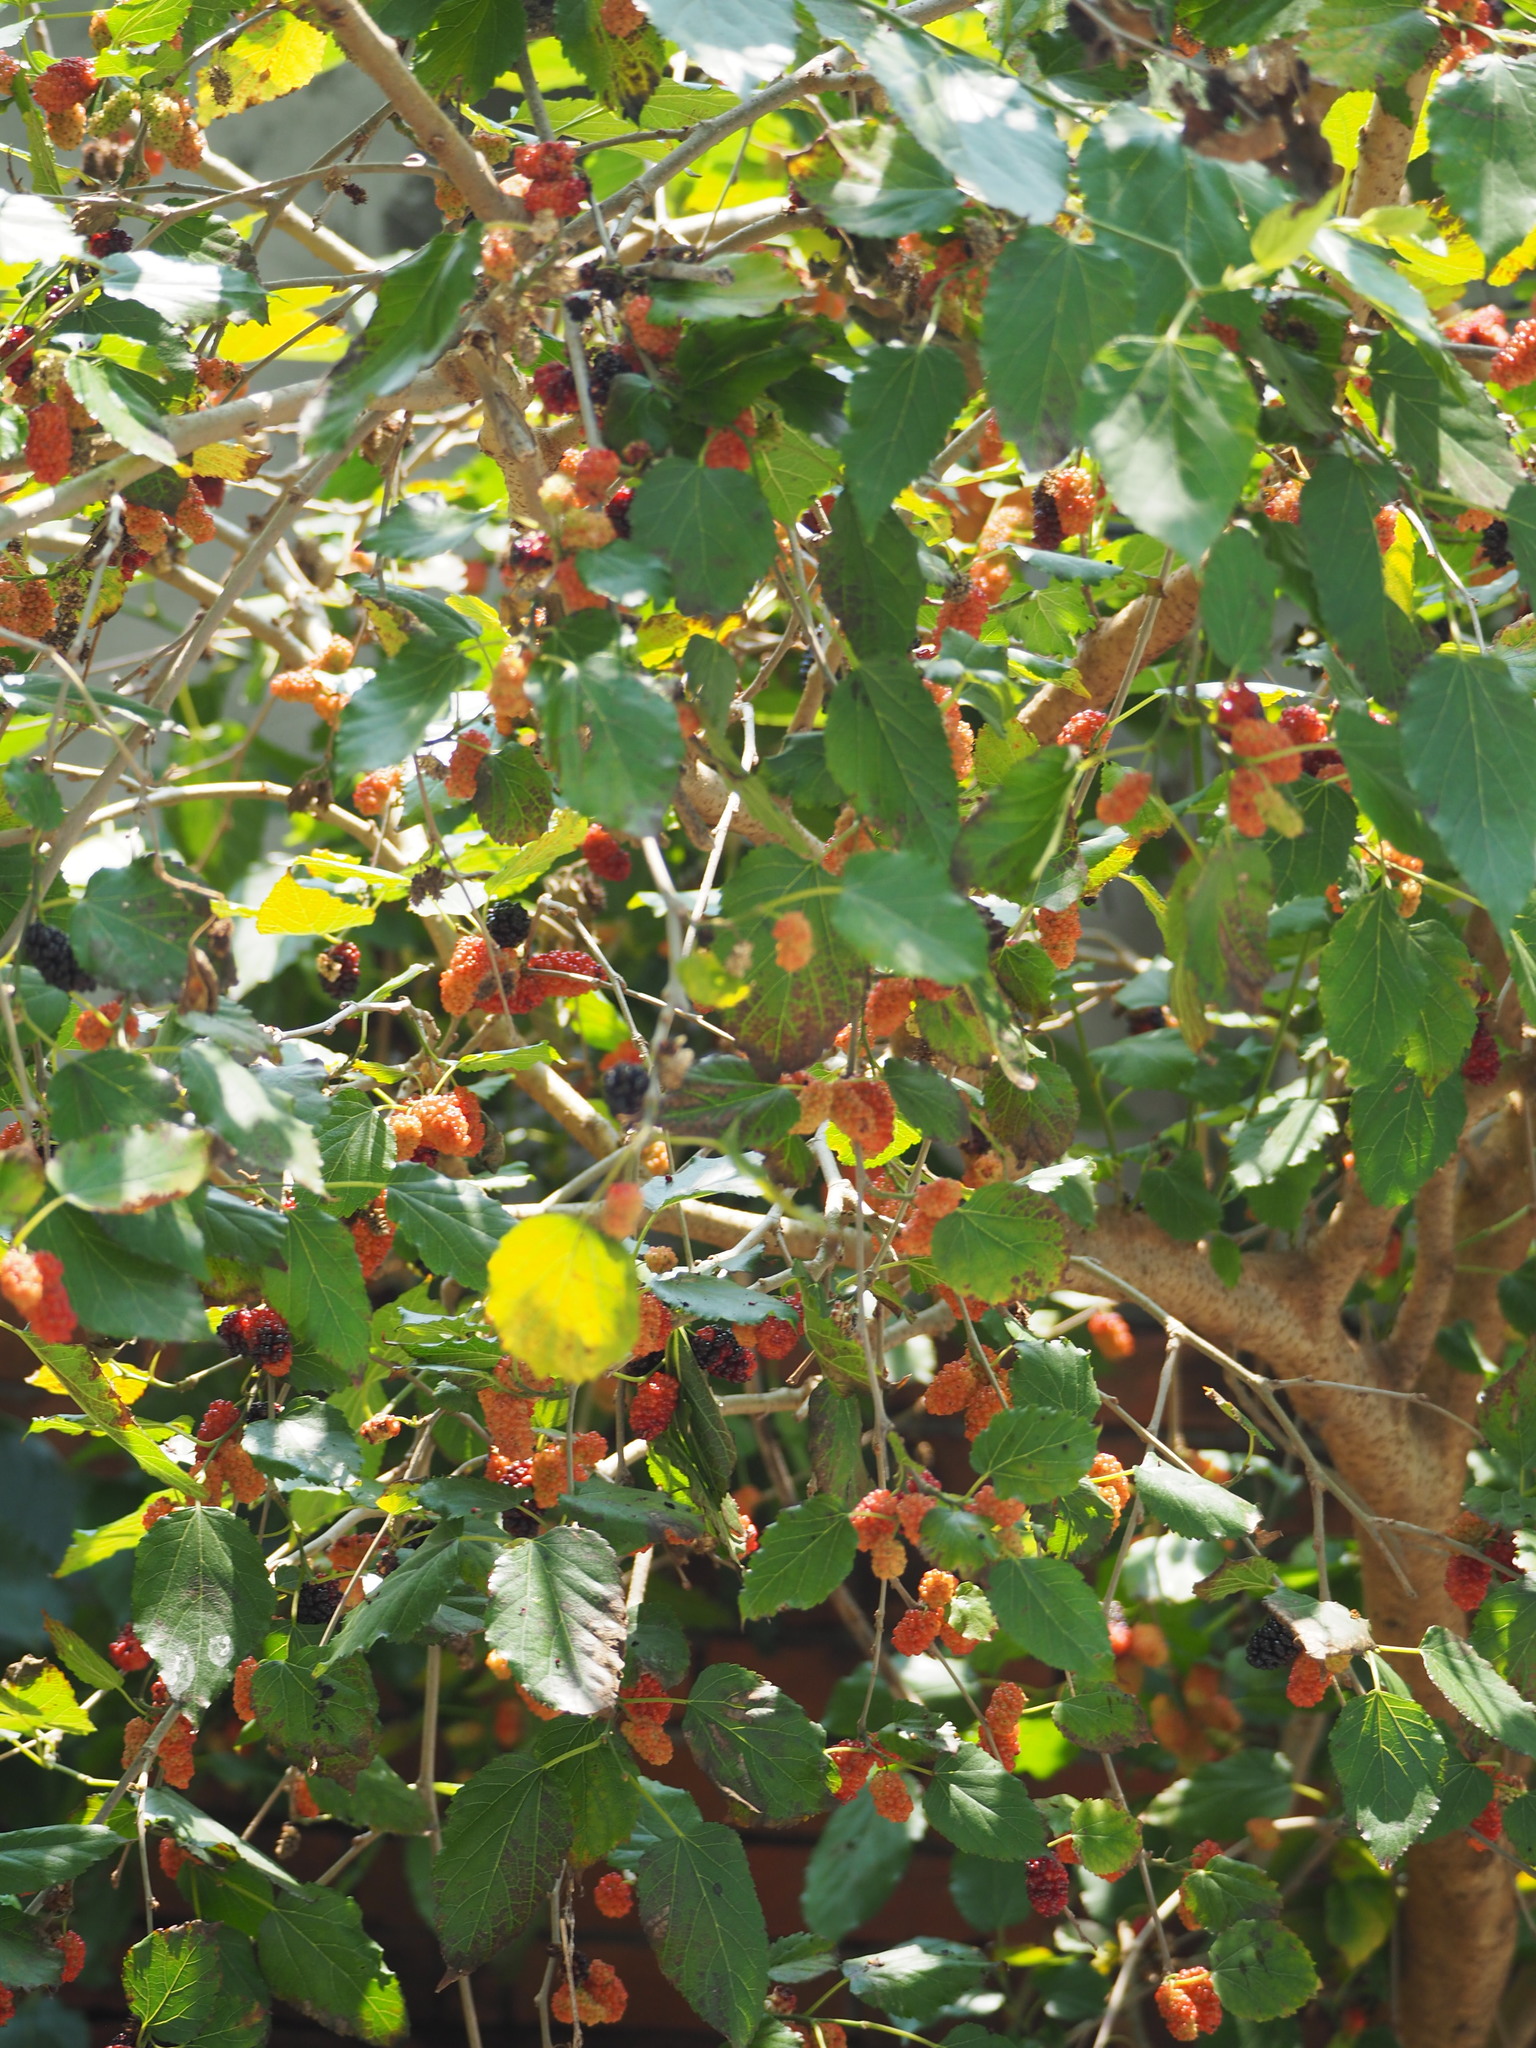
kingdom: Plantae
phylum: Tracheophyta
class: Magnoliopsida
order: Rosales
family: Moraceae
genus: Morus
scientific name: Morus indica
